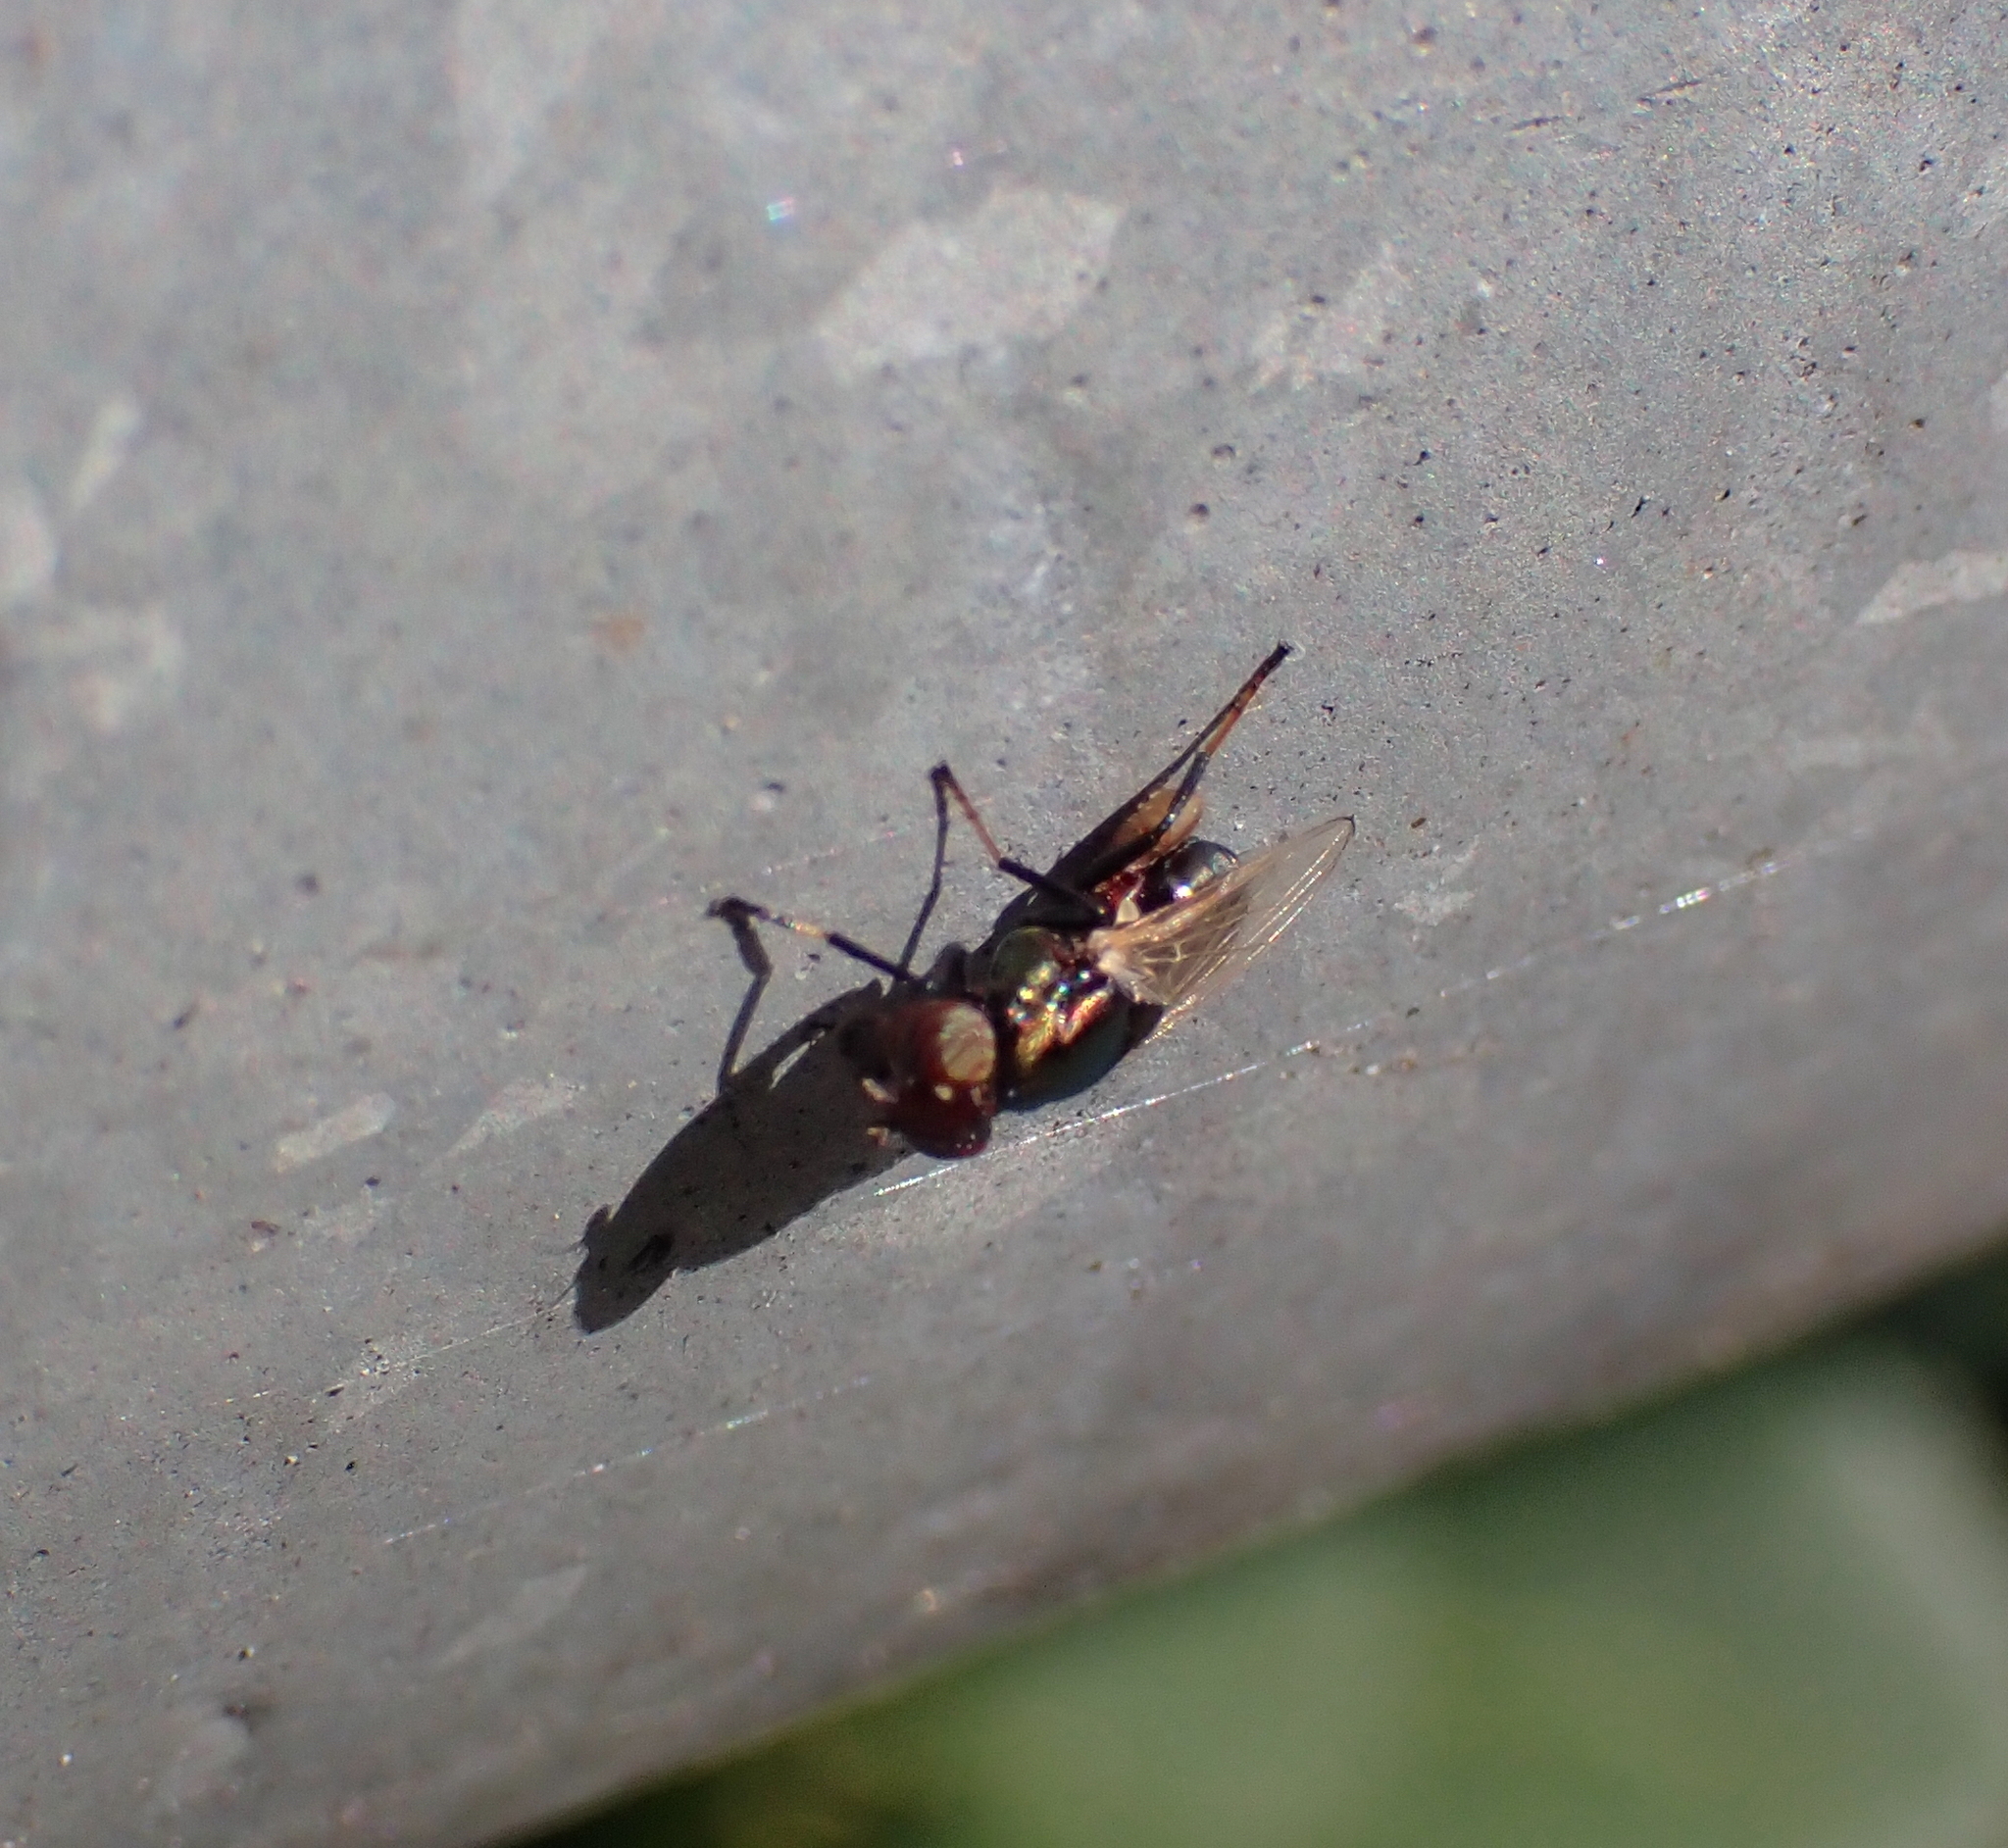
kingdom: Animalia
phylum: Arthropoda
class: Insecta
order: Diptera
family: Ulidiidae
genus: Physiphora
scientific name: Physiphora alceae
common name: Picture-winged fly
